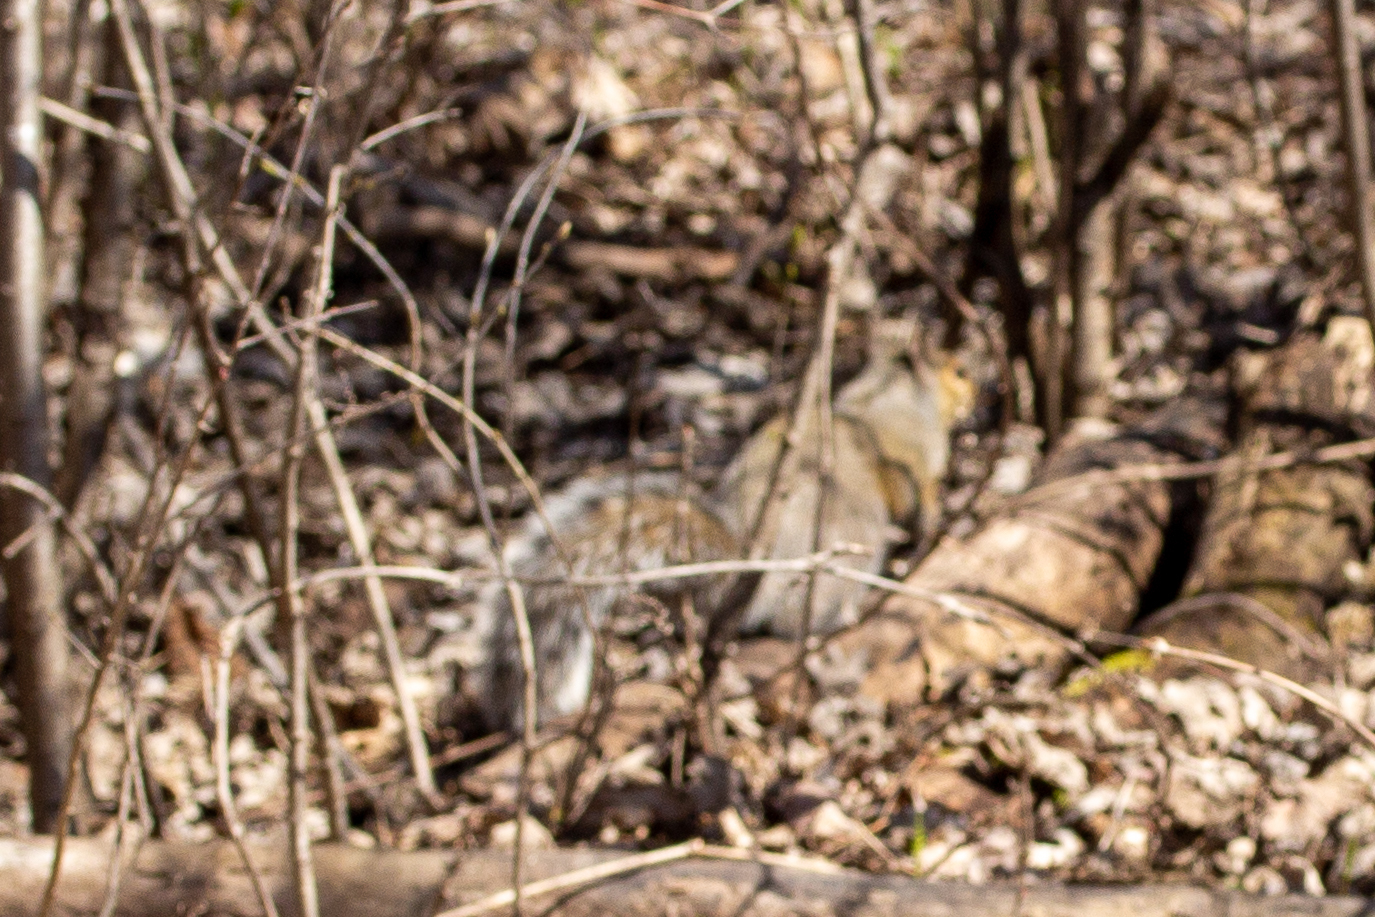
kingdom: Animalia
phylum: Chordata
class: Mammalia
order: Rodentia
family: Sciuridae
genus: Sciurus
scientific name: Sciurus carolinensis
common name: Eastern gray squirrel
